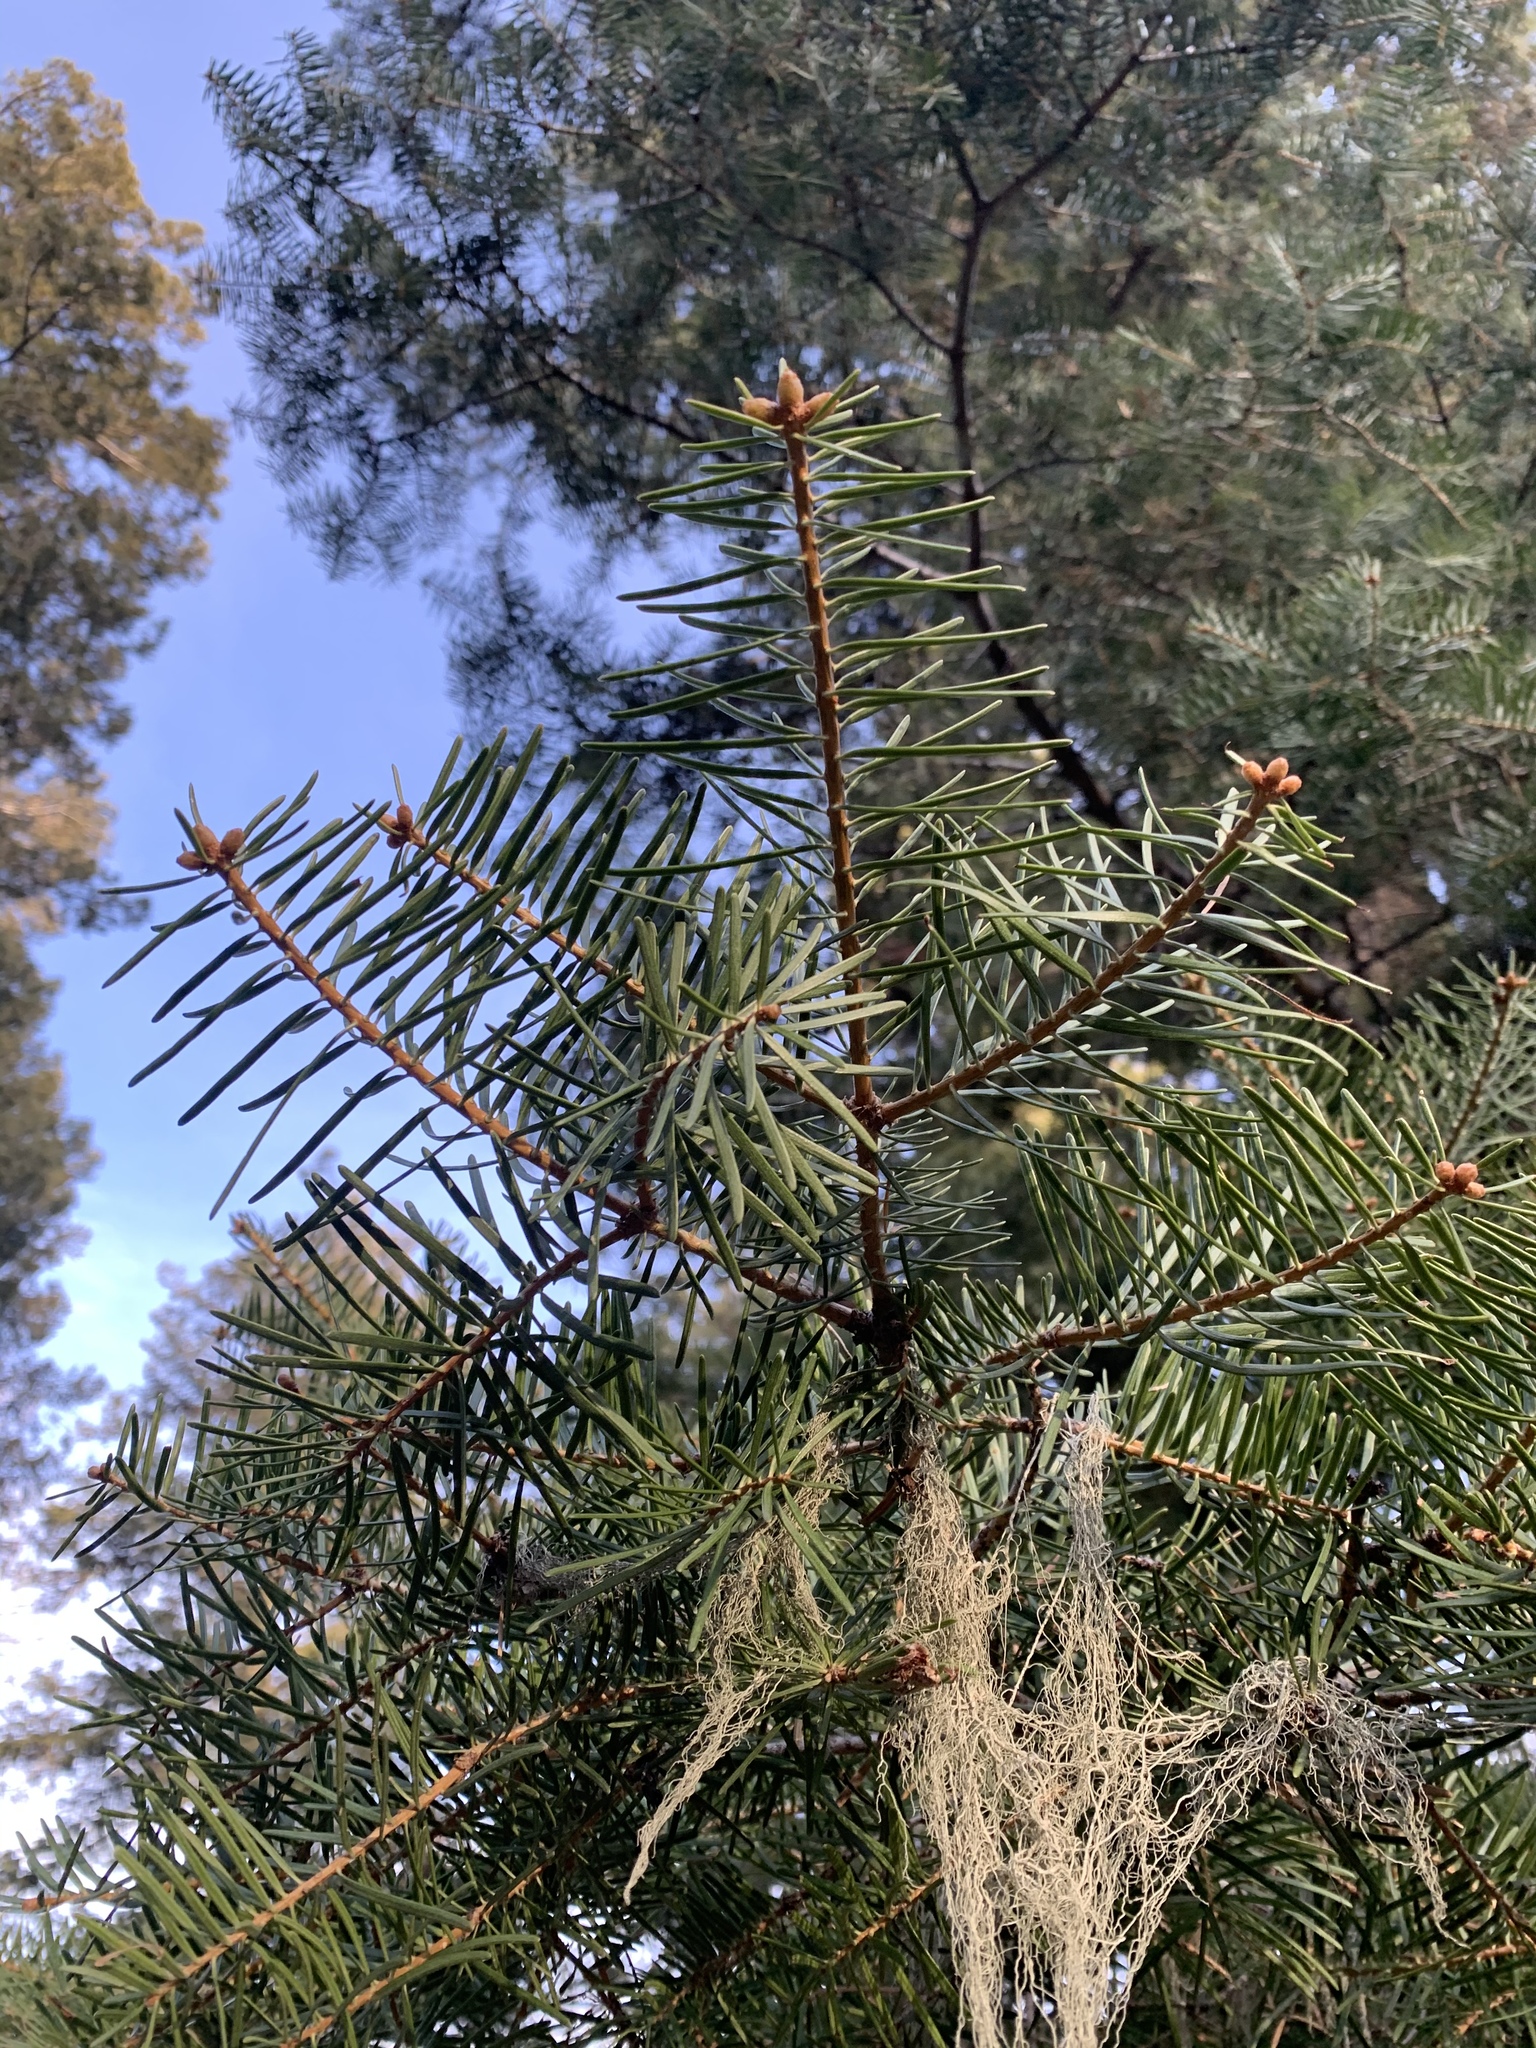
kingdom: Plantae
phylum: Tracheophyta
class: Pinopsida
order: Pinales
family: Pinaceae
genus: Abies
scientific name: Abies concolor
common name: Colorado fir
